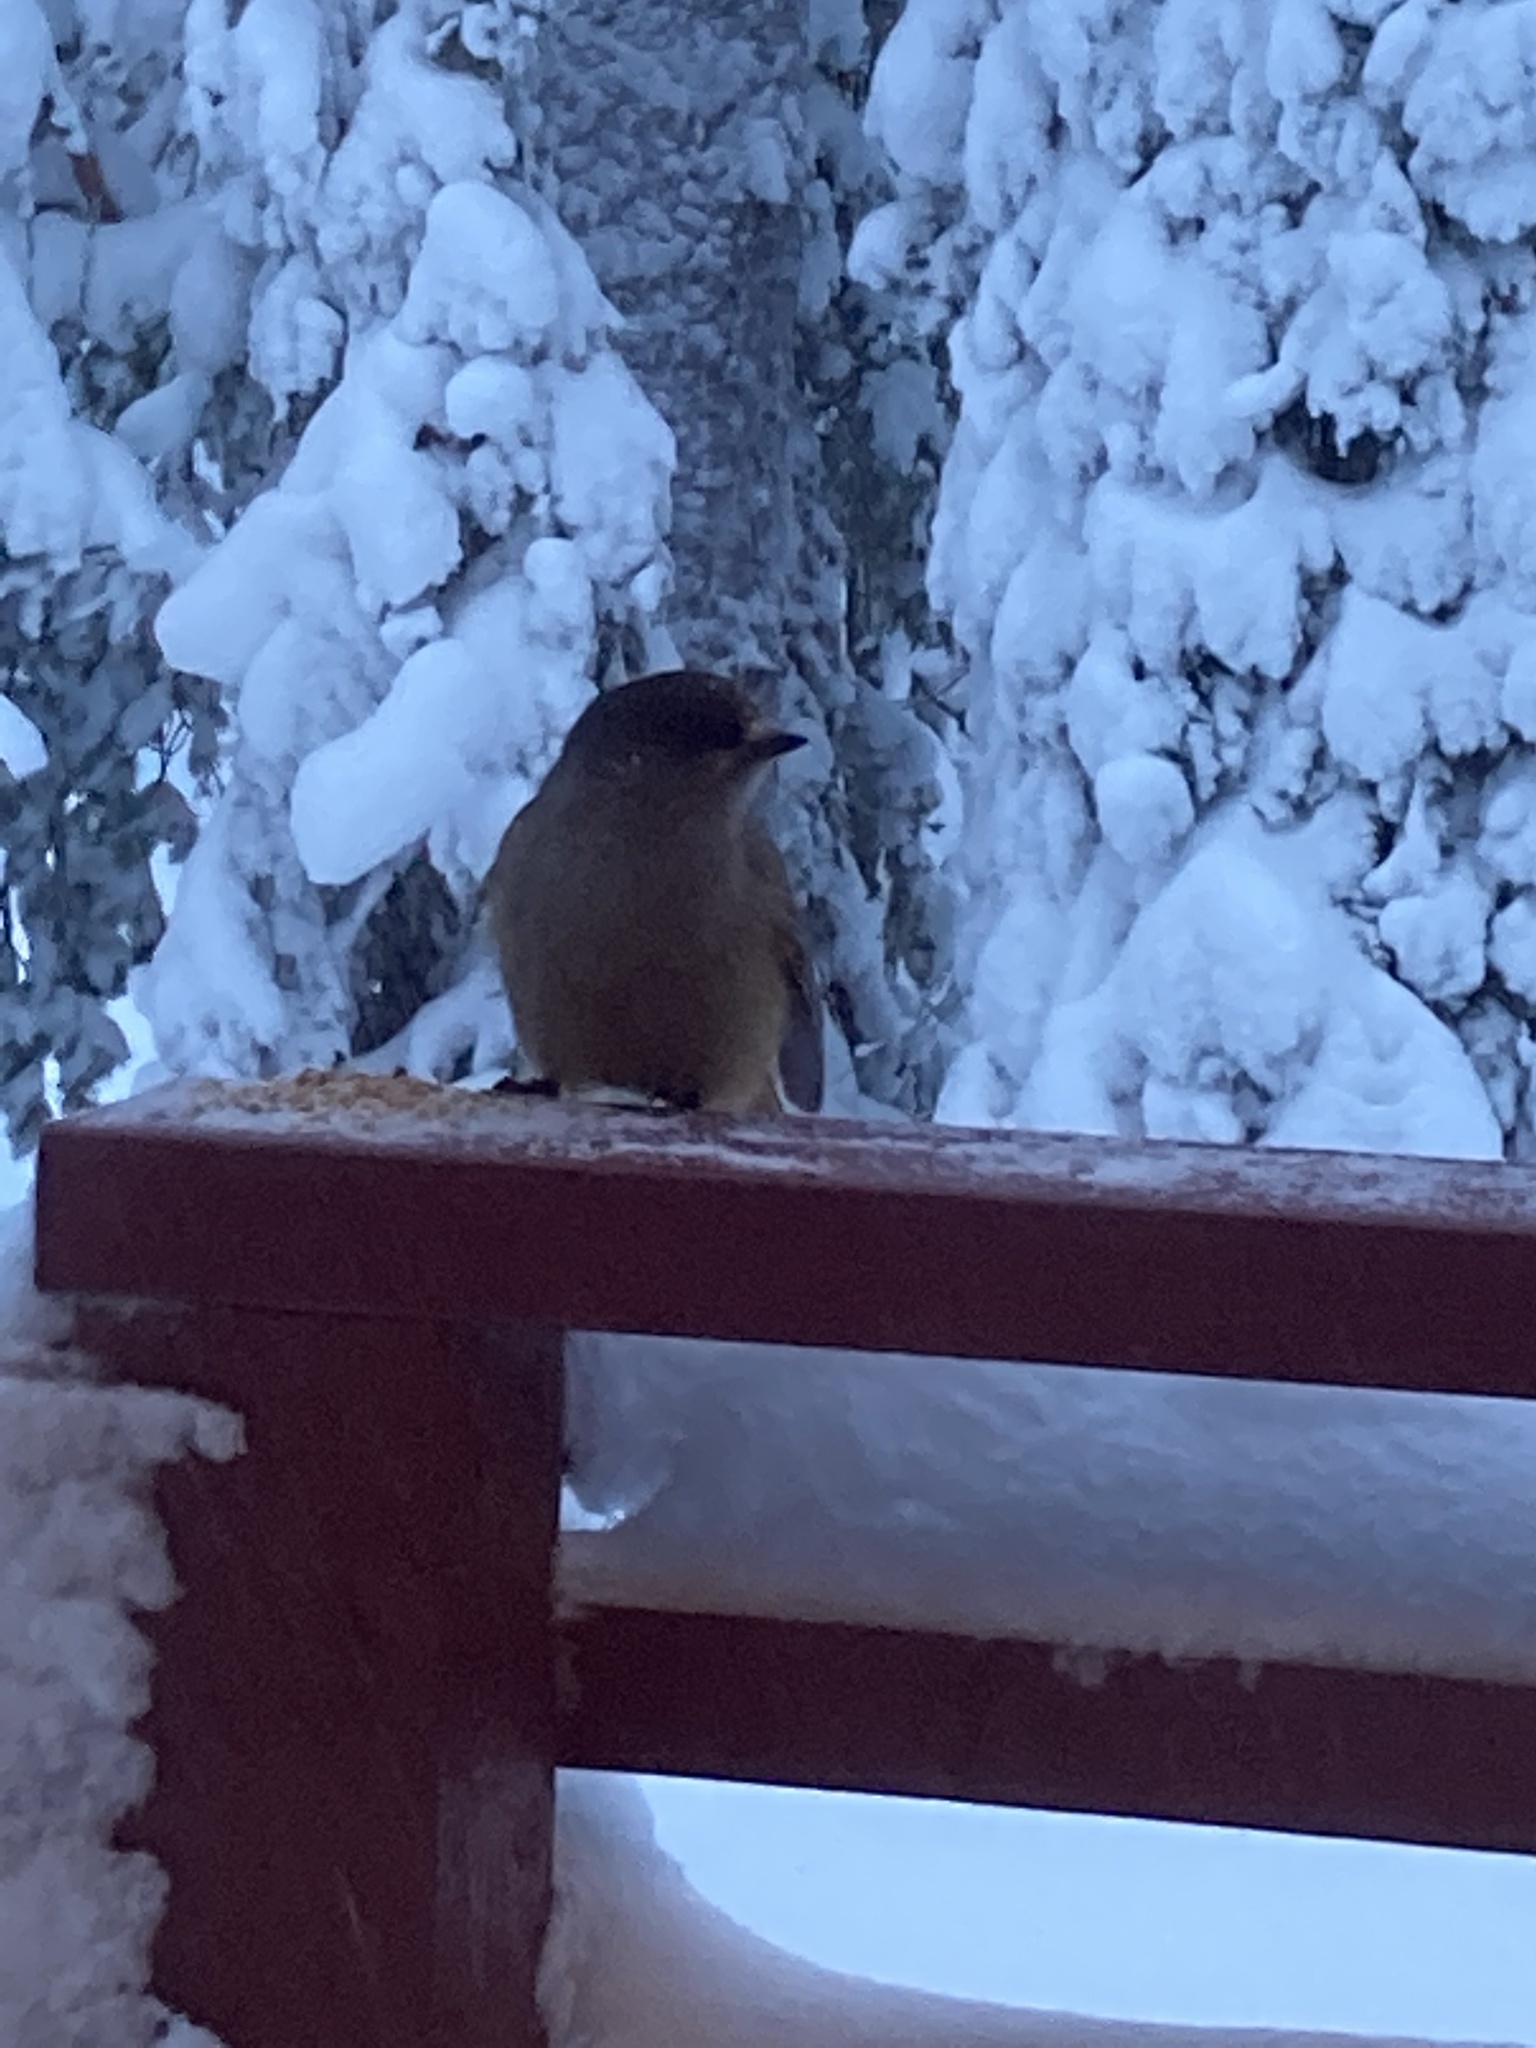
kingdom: Animalia
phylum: Chordata
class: Aves
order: Passeriformes
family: Corvidae
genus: Perisoreus
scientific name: Perisoreus infaustus
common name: Siberian jay
